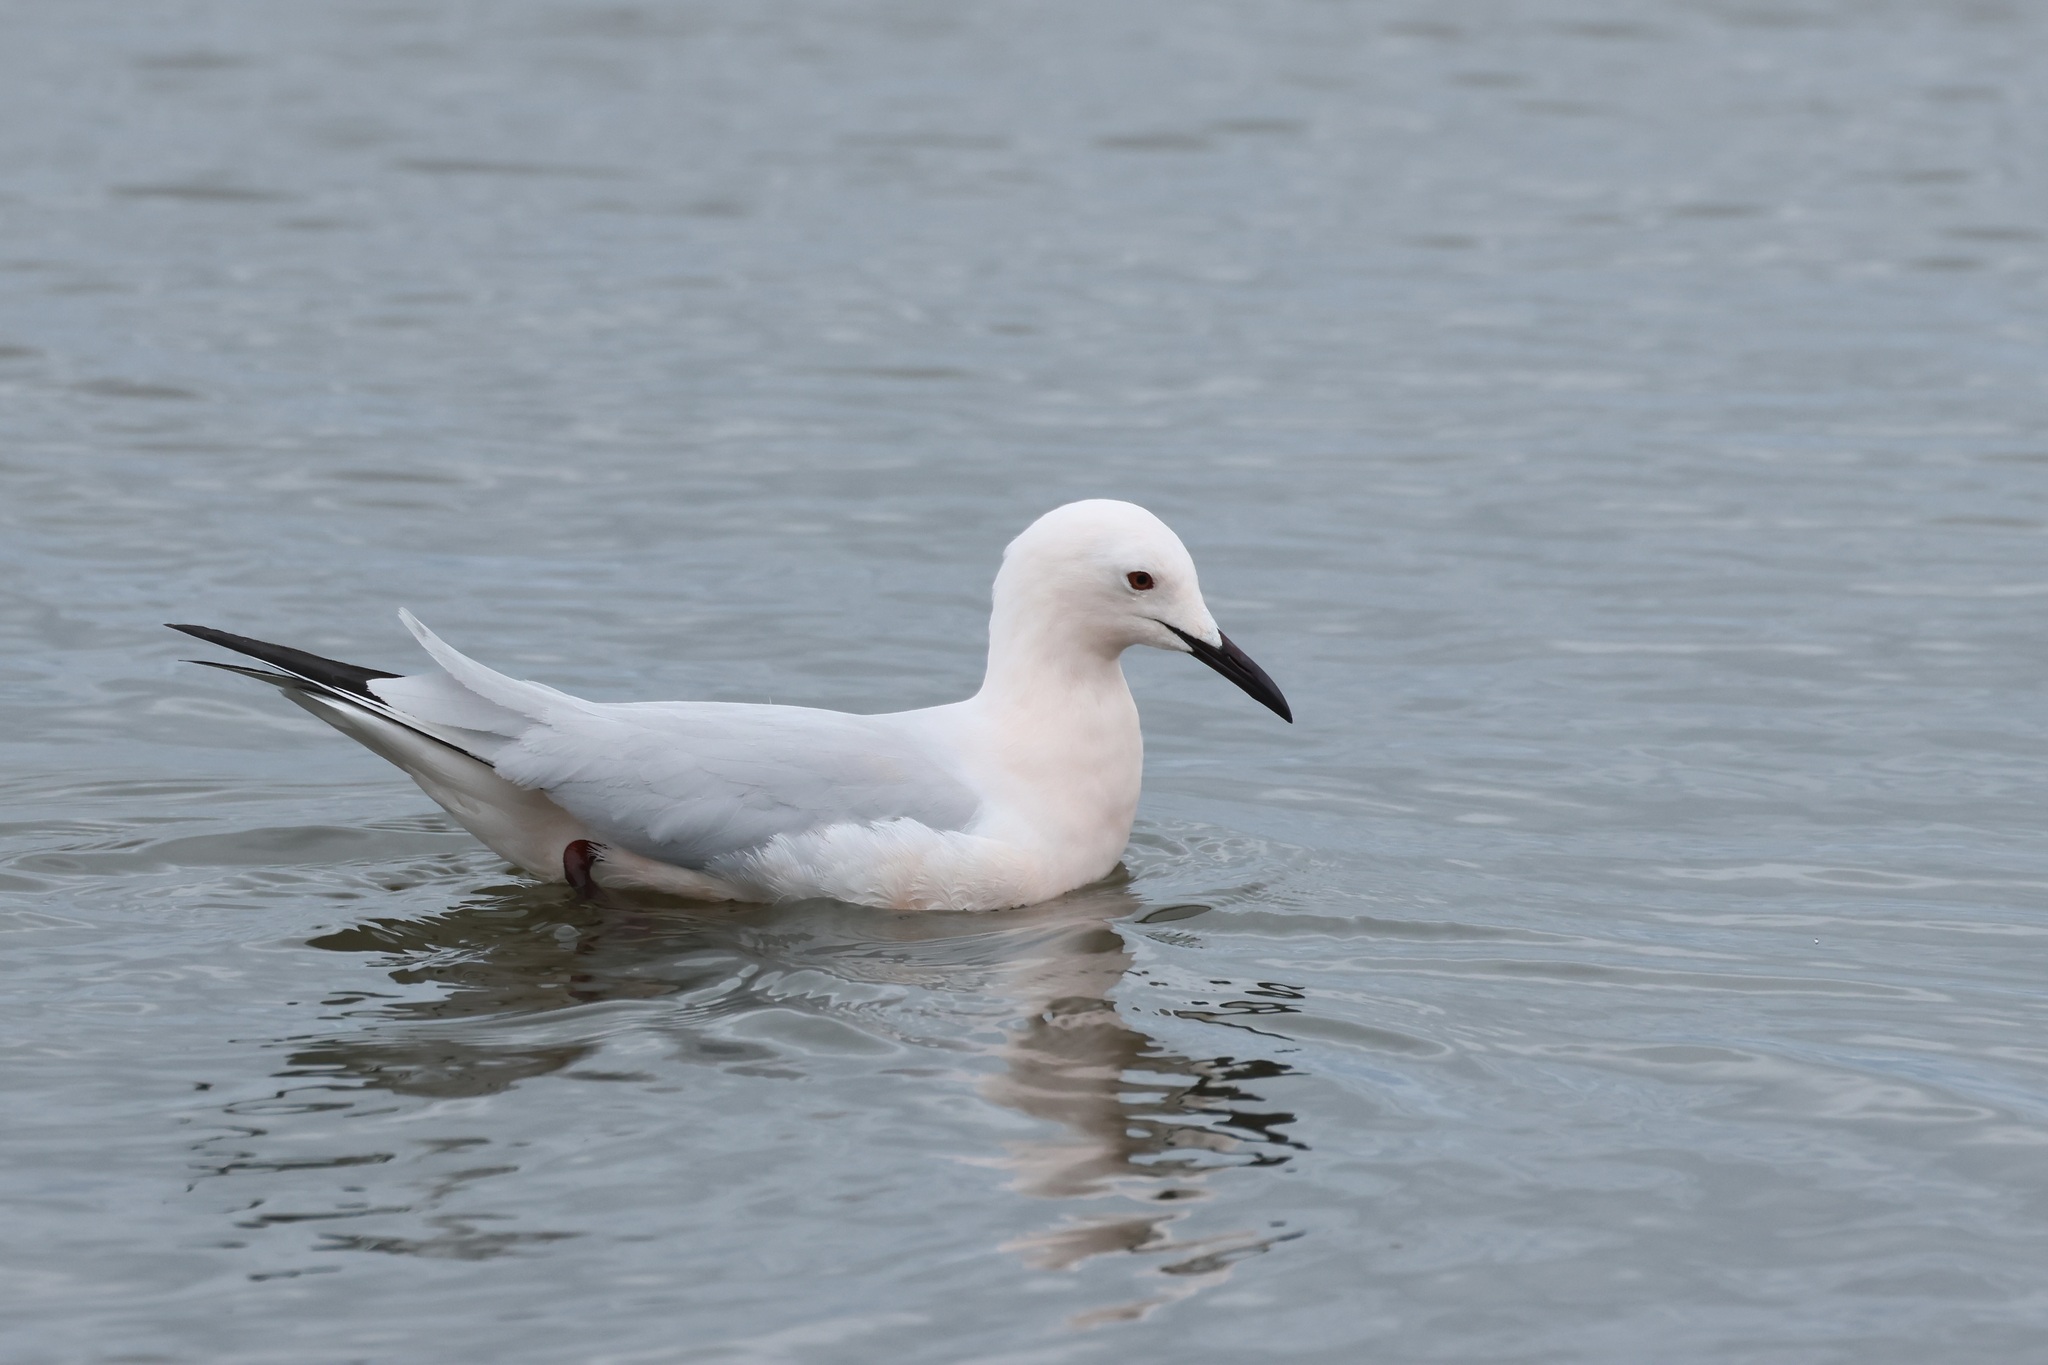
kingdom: Animalia
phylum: Chordata
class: Aves
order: Charadriiformes
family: Laridae
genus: Chroicocephalus
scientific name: Chroicocephalus genei
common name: Slender-billed gull
